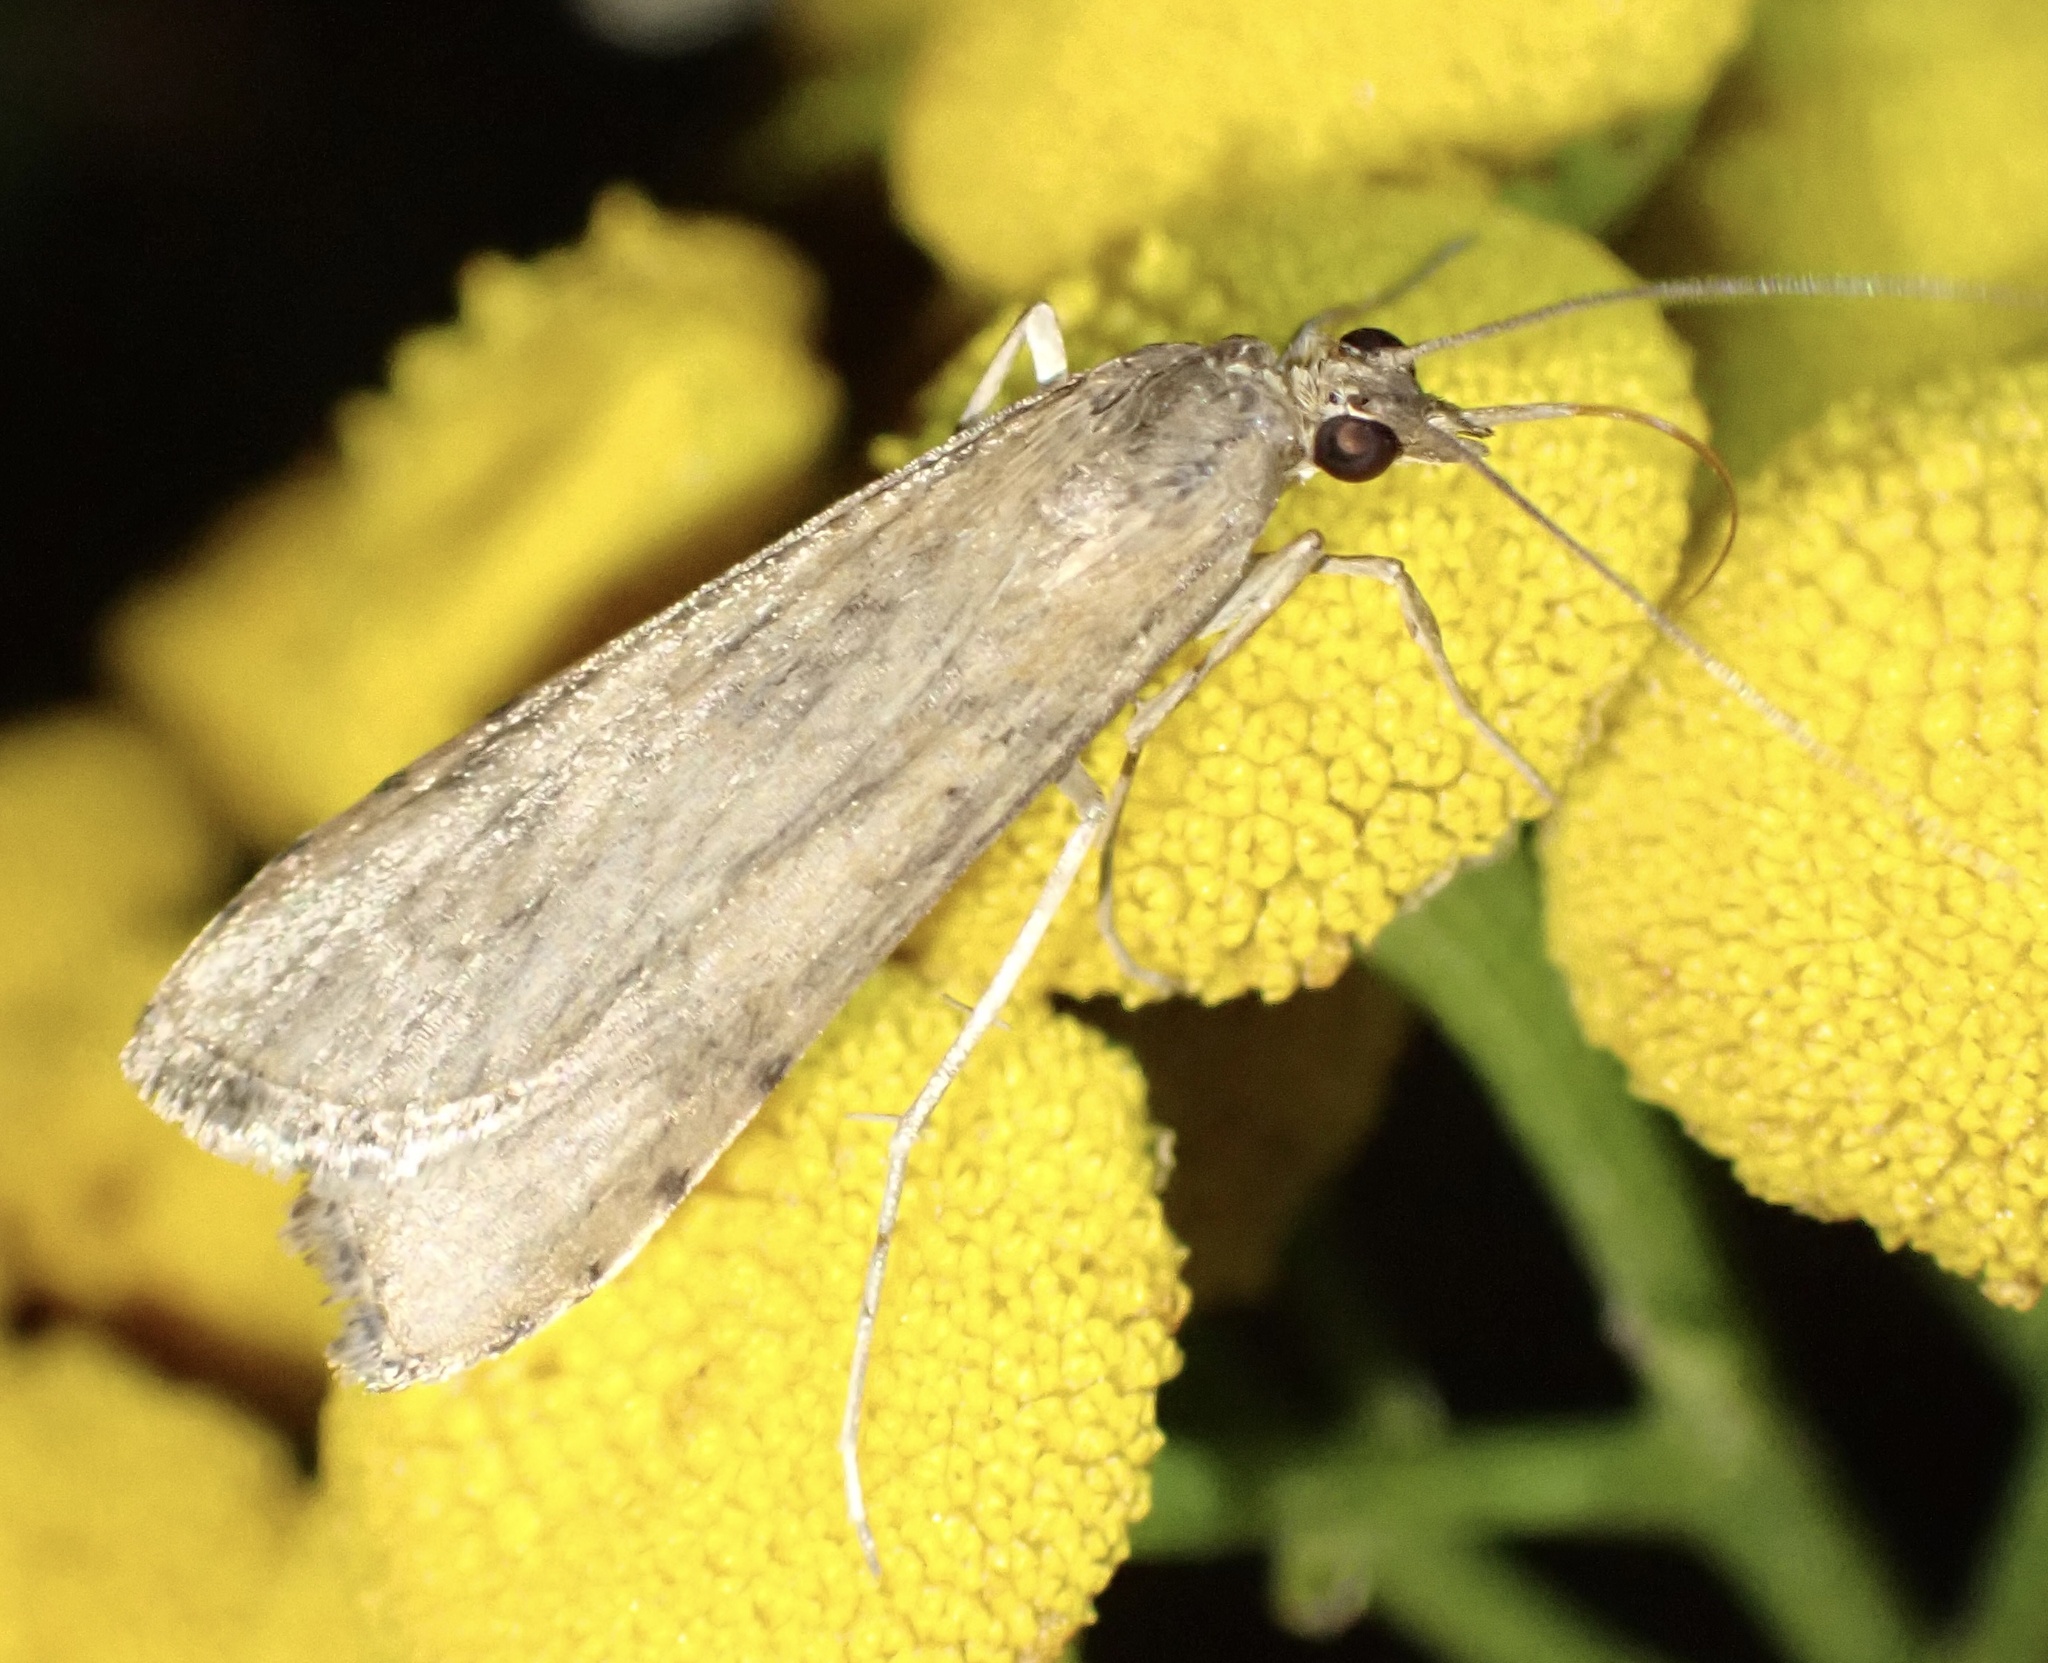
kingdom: Animalia
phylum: Arthropoda
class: Insecta
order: Lepidoptera
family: Crambidae
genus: Nomophila
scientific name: Nomophila noctuella
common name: Rush veneer
